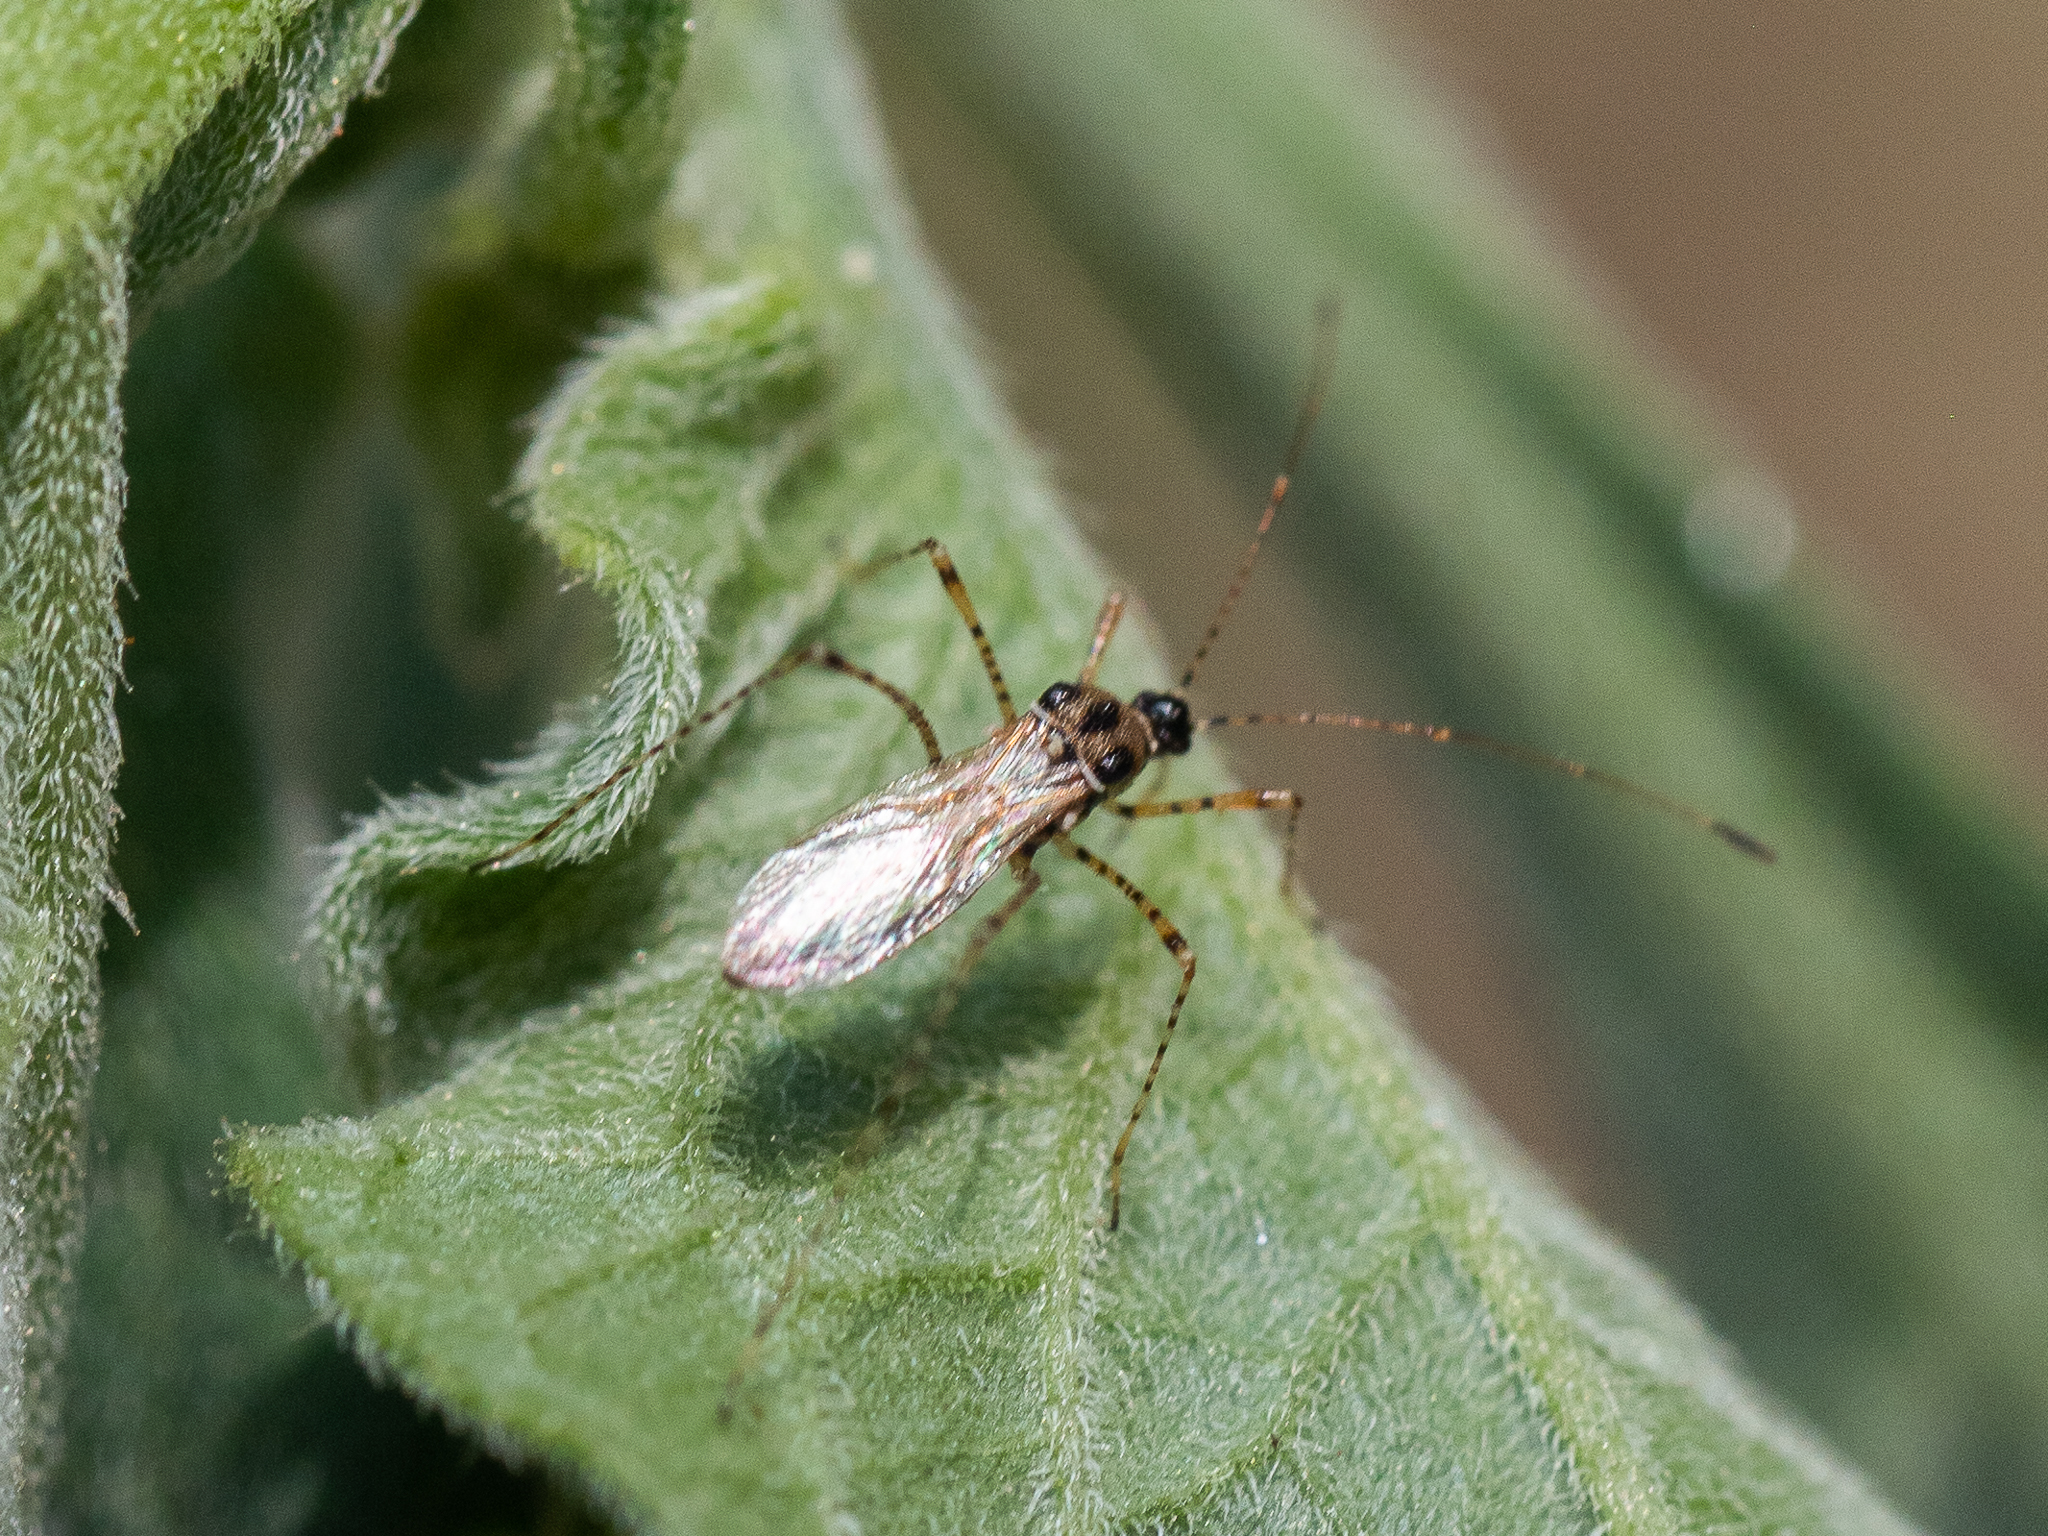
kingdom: Animalia
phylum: Arthropoda
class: Insecta
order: Hemiptera
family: Berytidae
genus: Gampsocoris
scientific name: Gampsocoris culicinus
